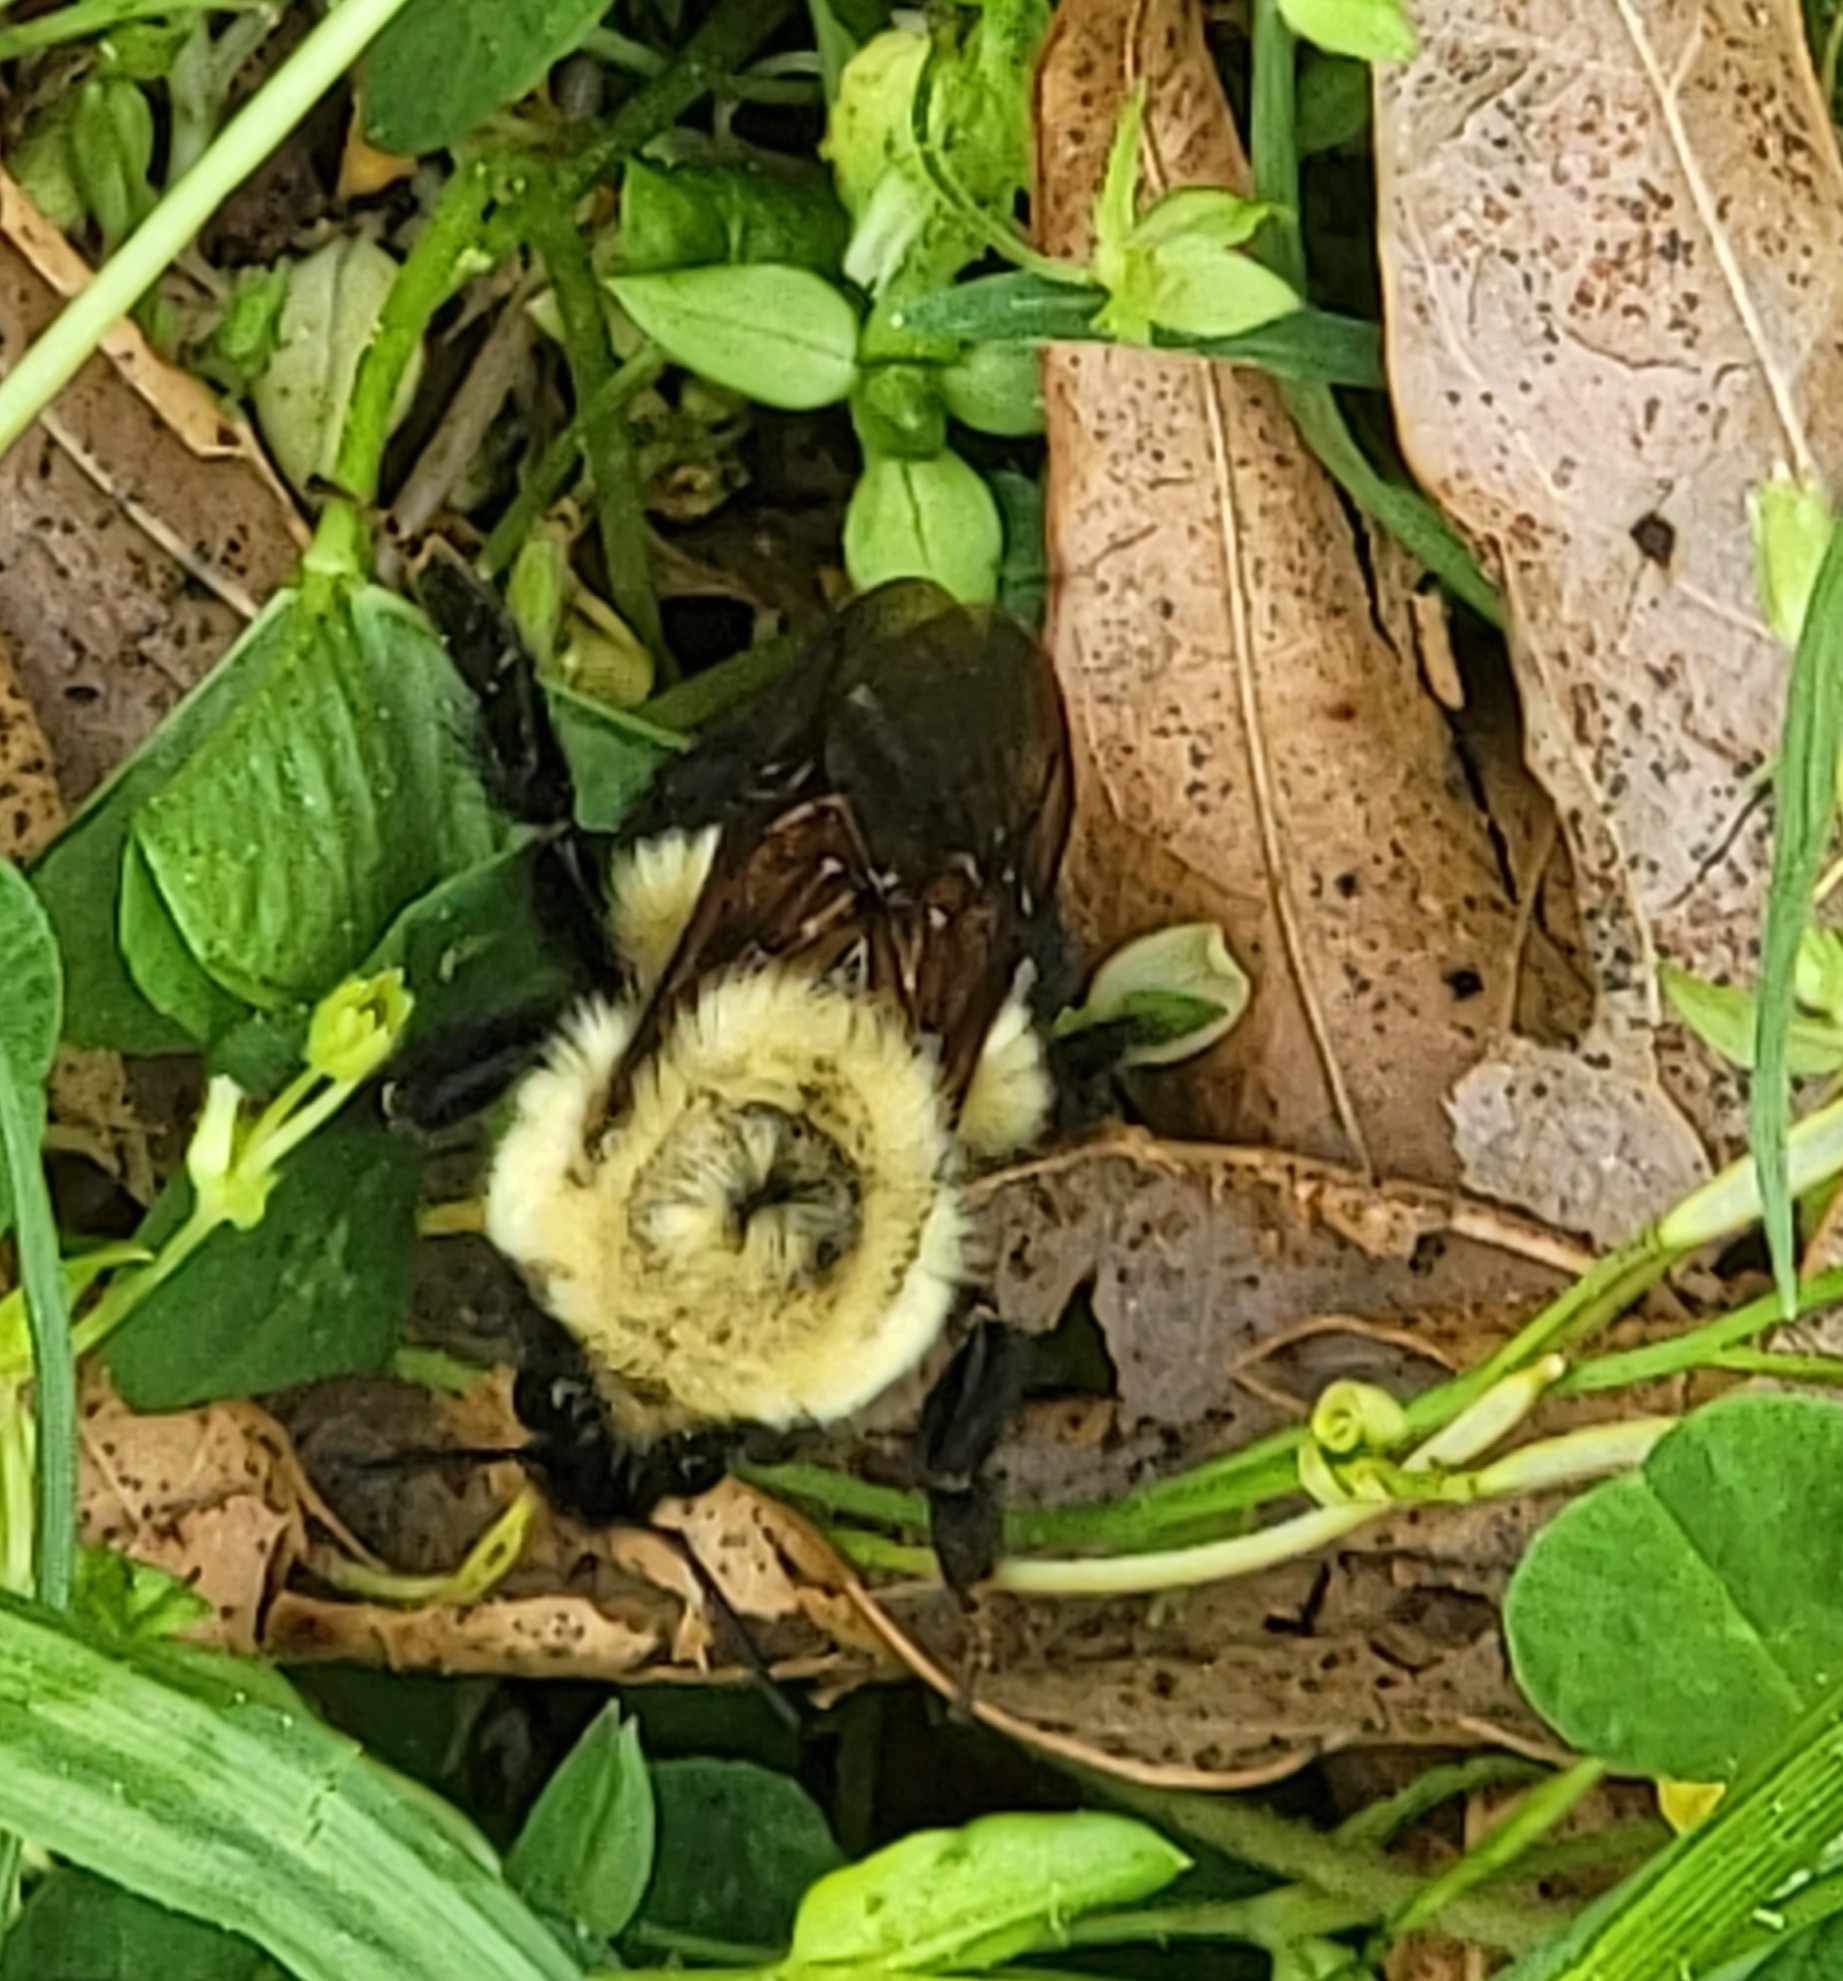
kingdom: Animalia
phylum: Arthropoda
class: Insecta
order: Hymenoptera
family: Apidae
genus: Bombus
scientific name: Bombus bimaculatus
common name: Two-spotted bumble bee
